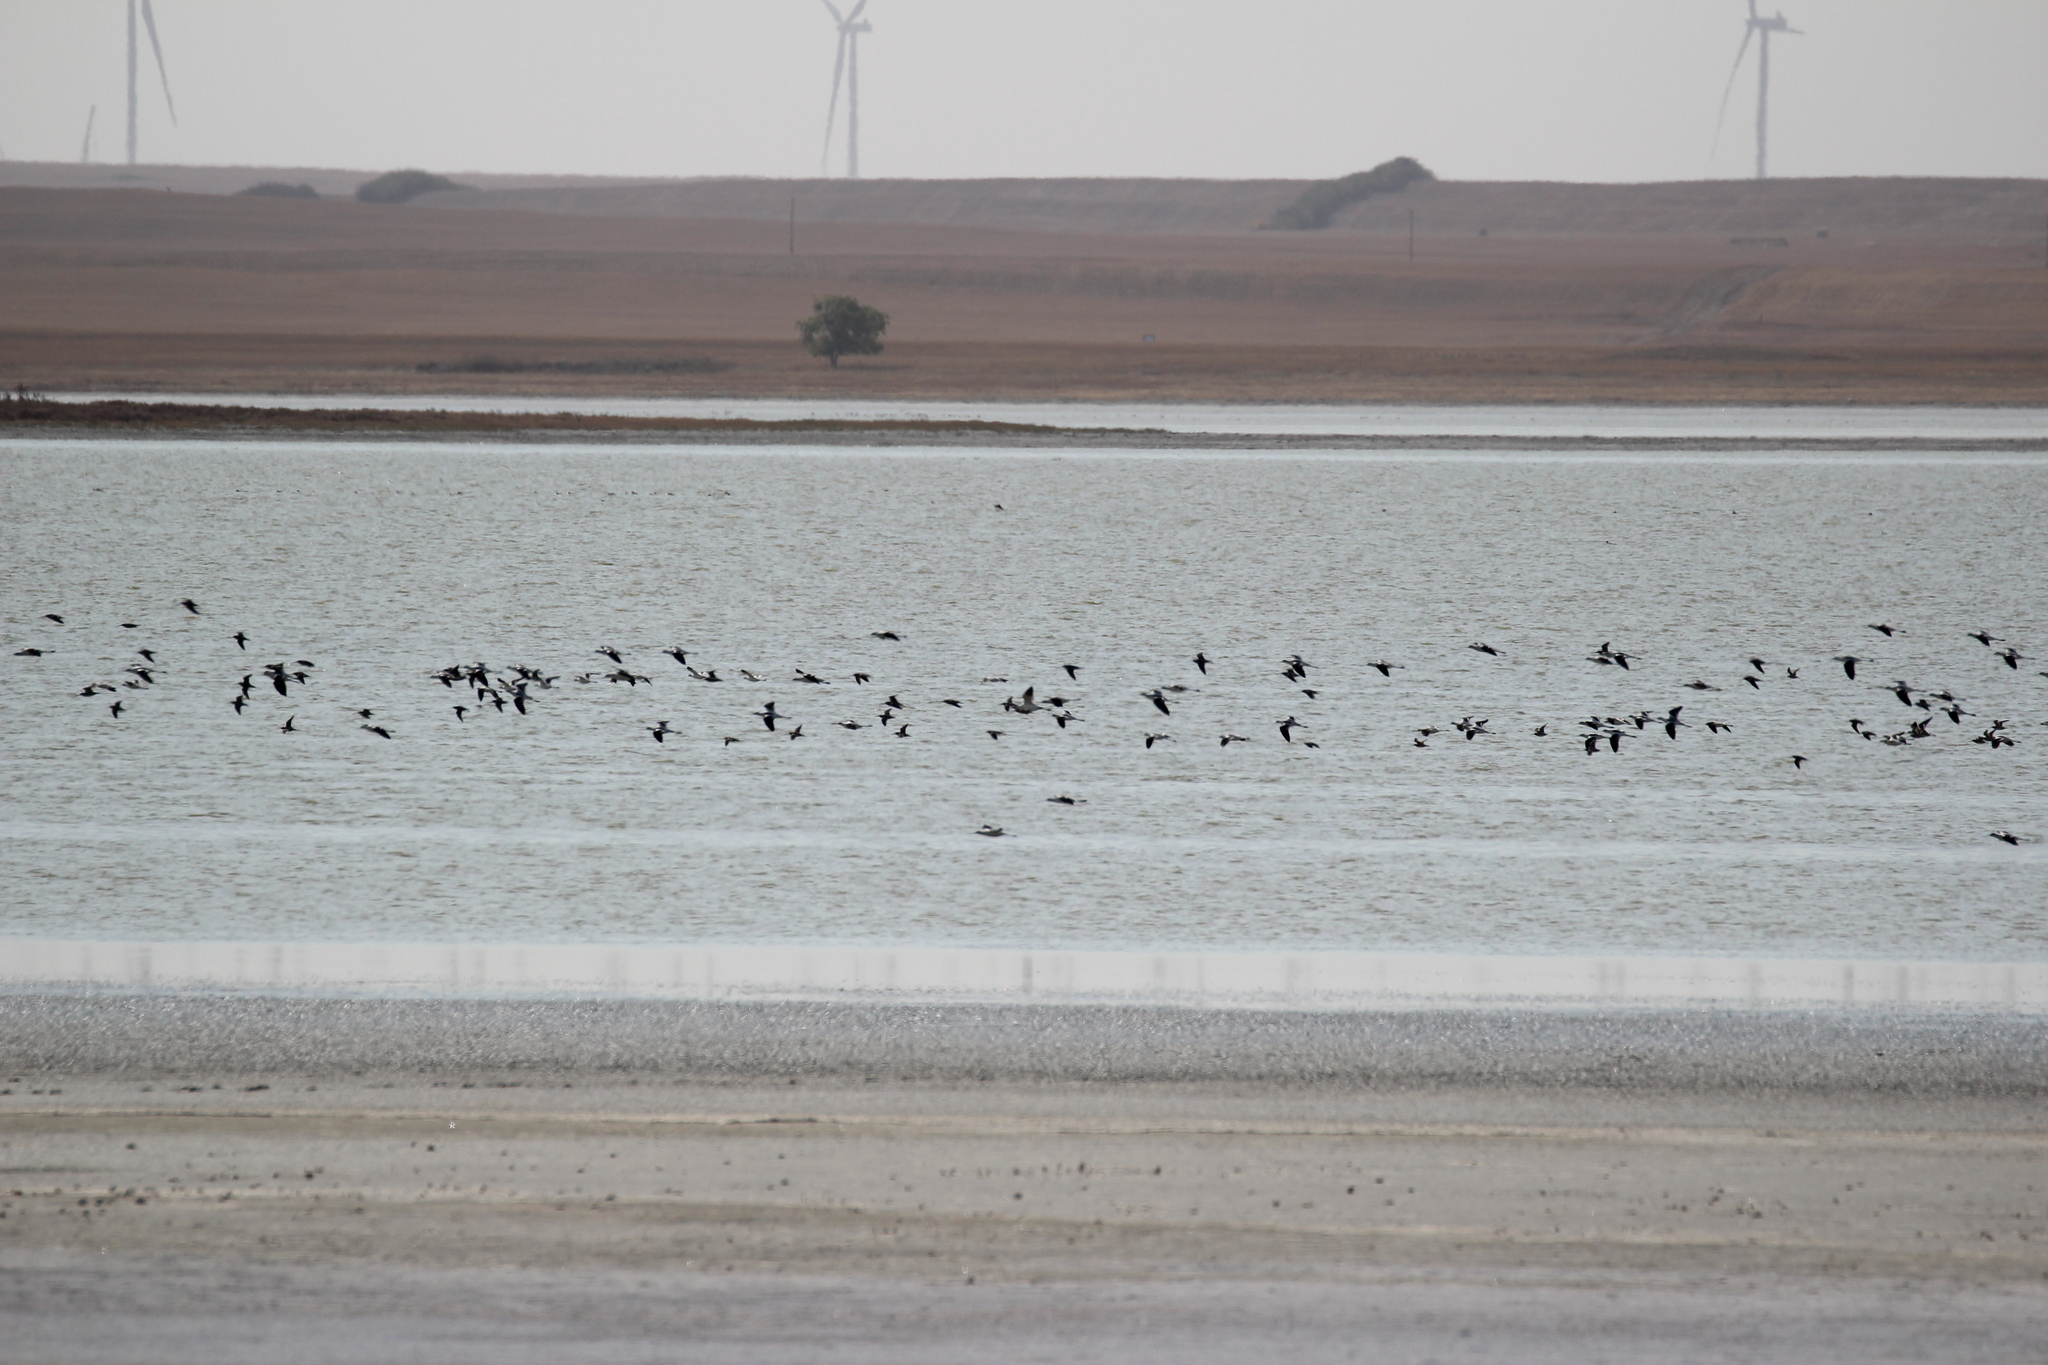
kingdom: Animalia
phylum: Chordata
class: Aves
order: Charadriiformes
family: Recurvirostridae
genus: Recurvirostra
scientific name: Recurvirostra americana
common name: American avocet
